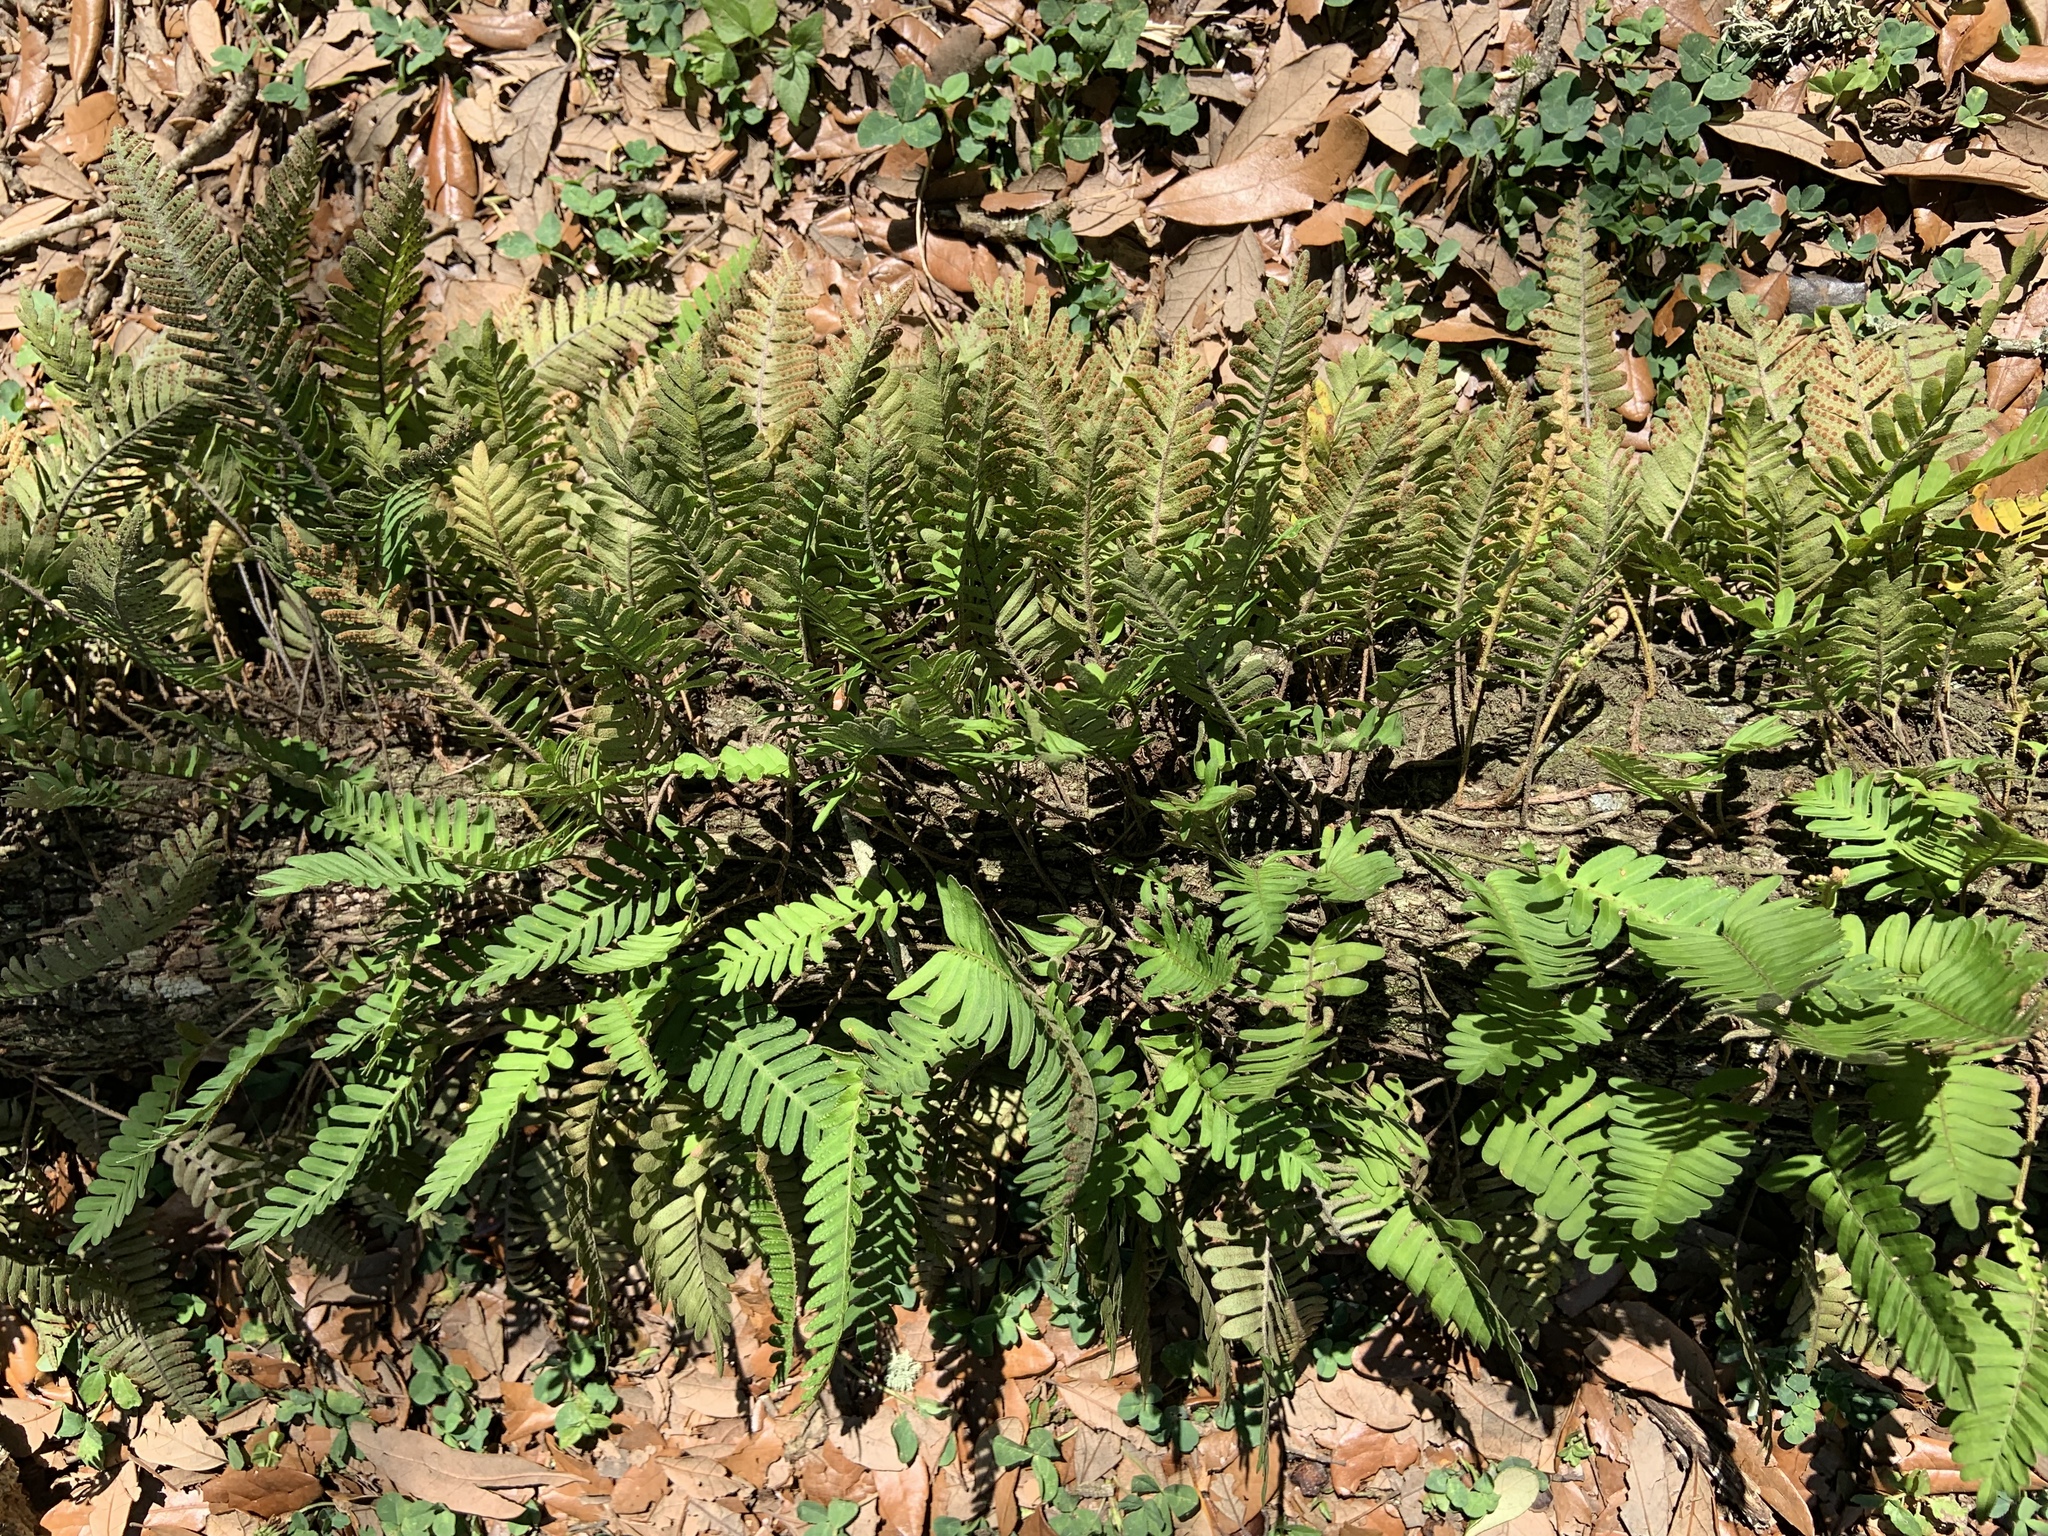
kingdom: Plantae
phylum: Tracheophyta
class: Polypodiopsida
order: Polypodiales
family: Polypodiaceae
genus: Pleopeltis
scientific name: Pleopeltis michauxiana
